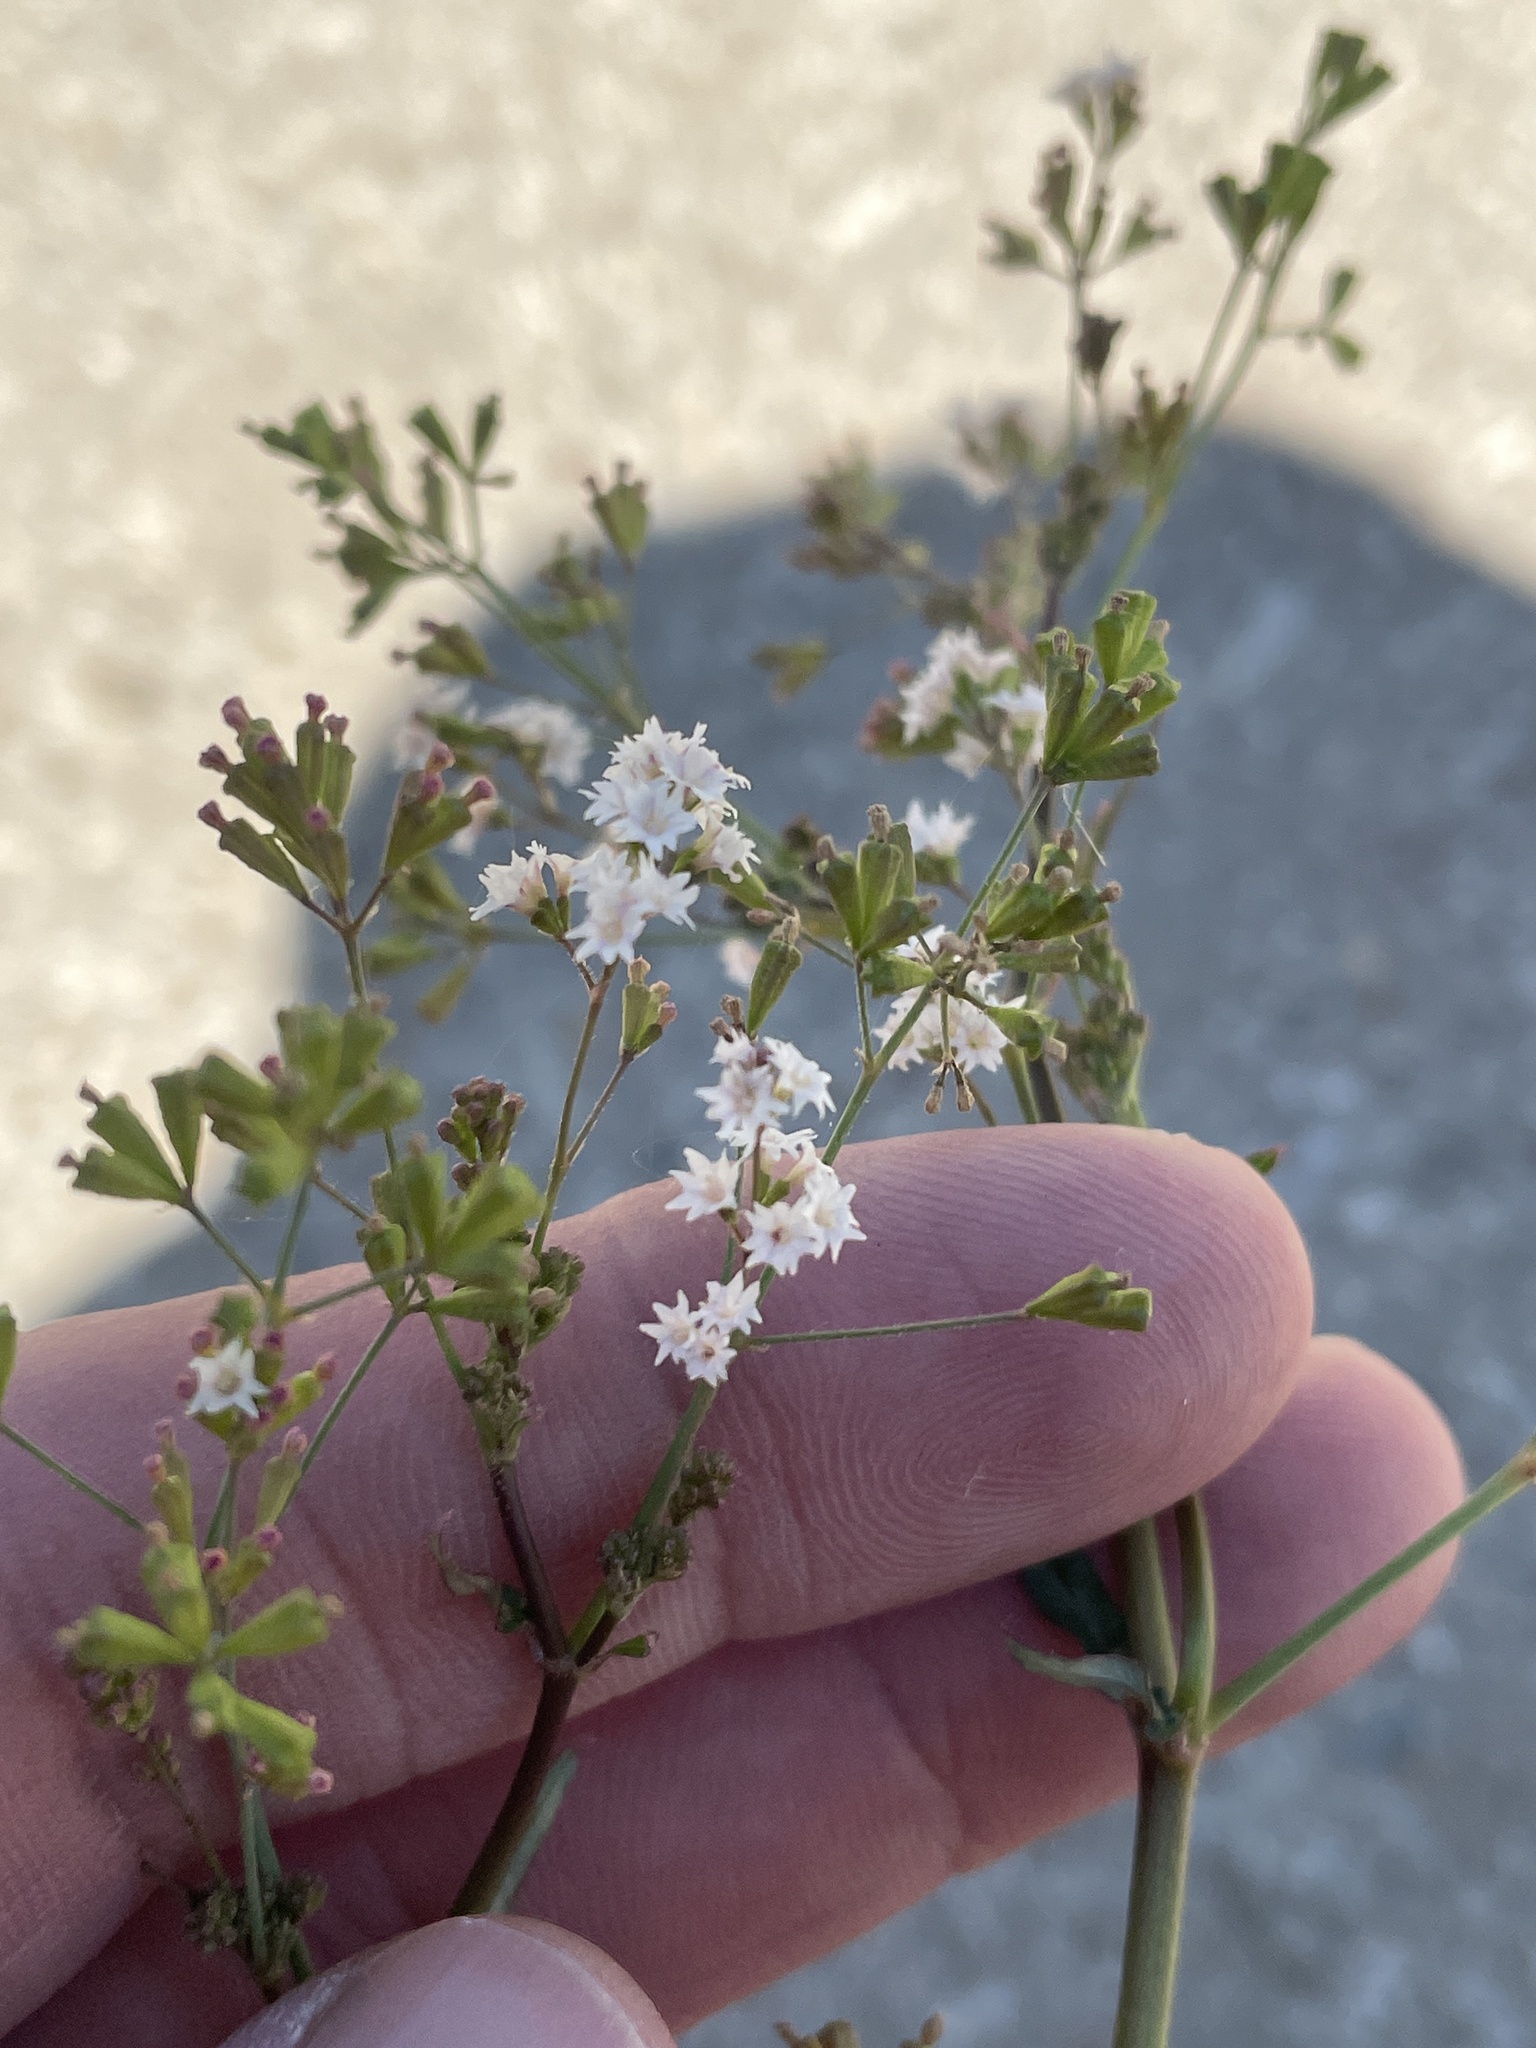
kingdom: Plantae
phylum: Tracheophyta
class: Magnoliopsida
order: Caryophyllales
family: Nyctaginaceae
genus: Boerhavia
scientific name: Boerhavia erecta
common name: Erect spiderling
